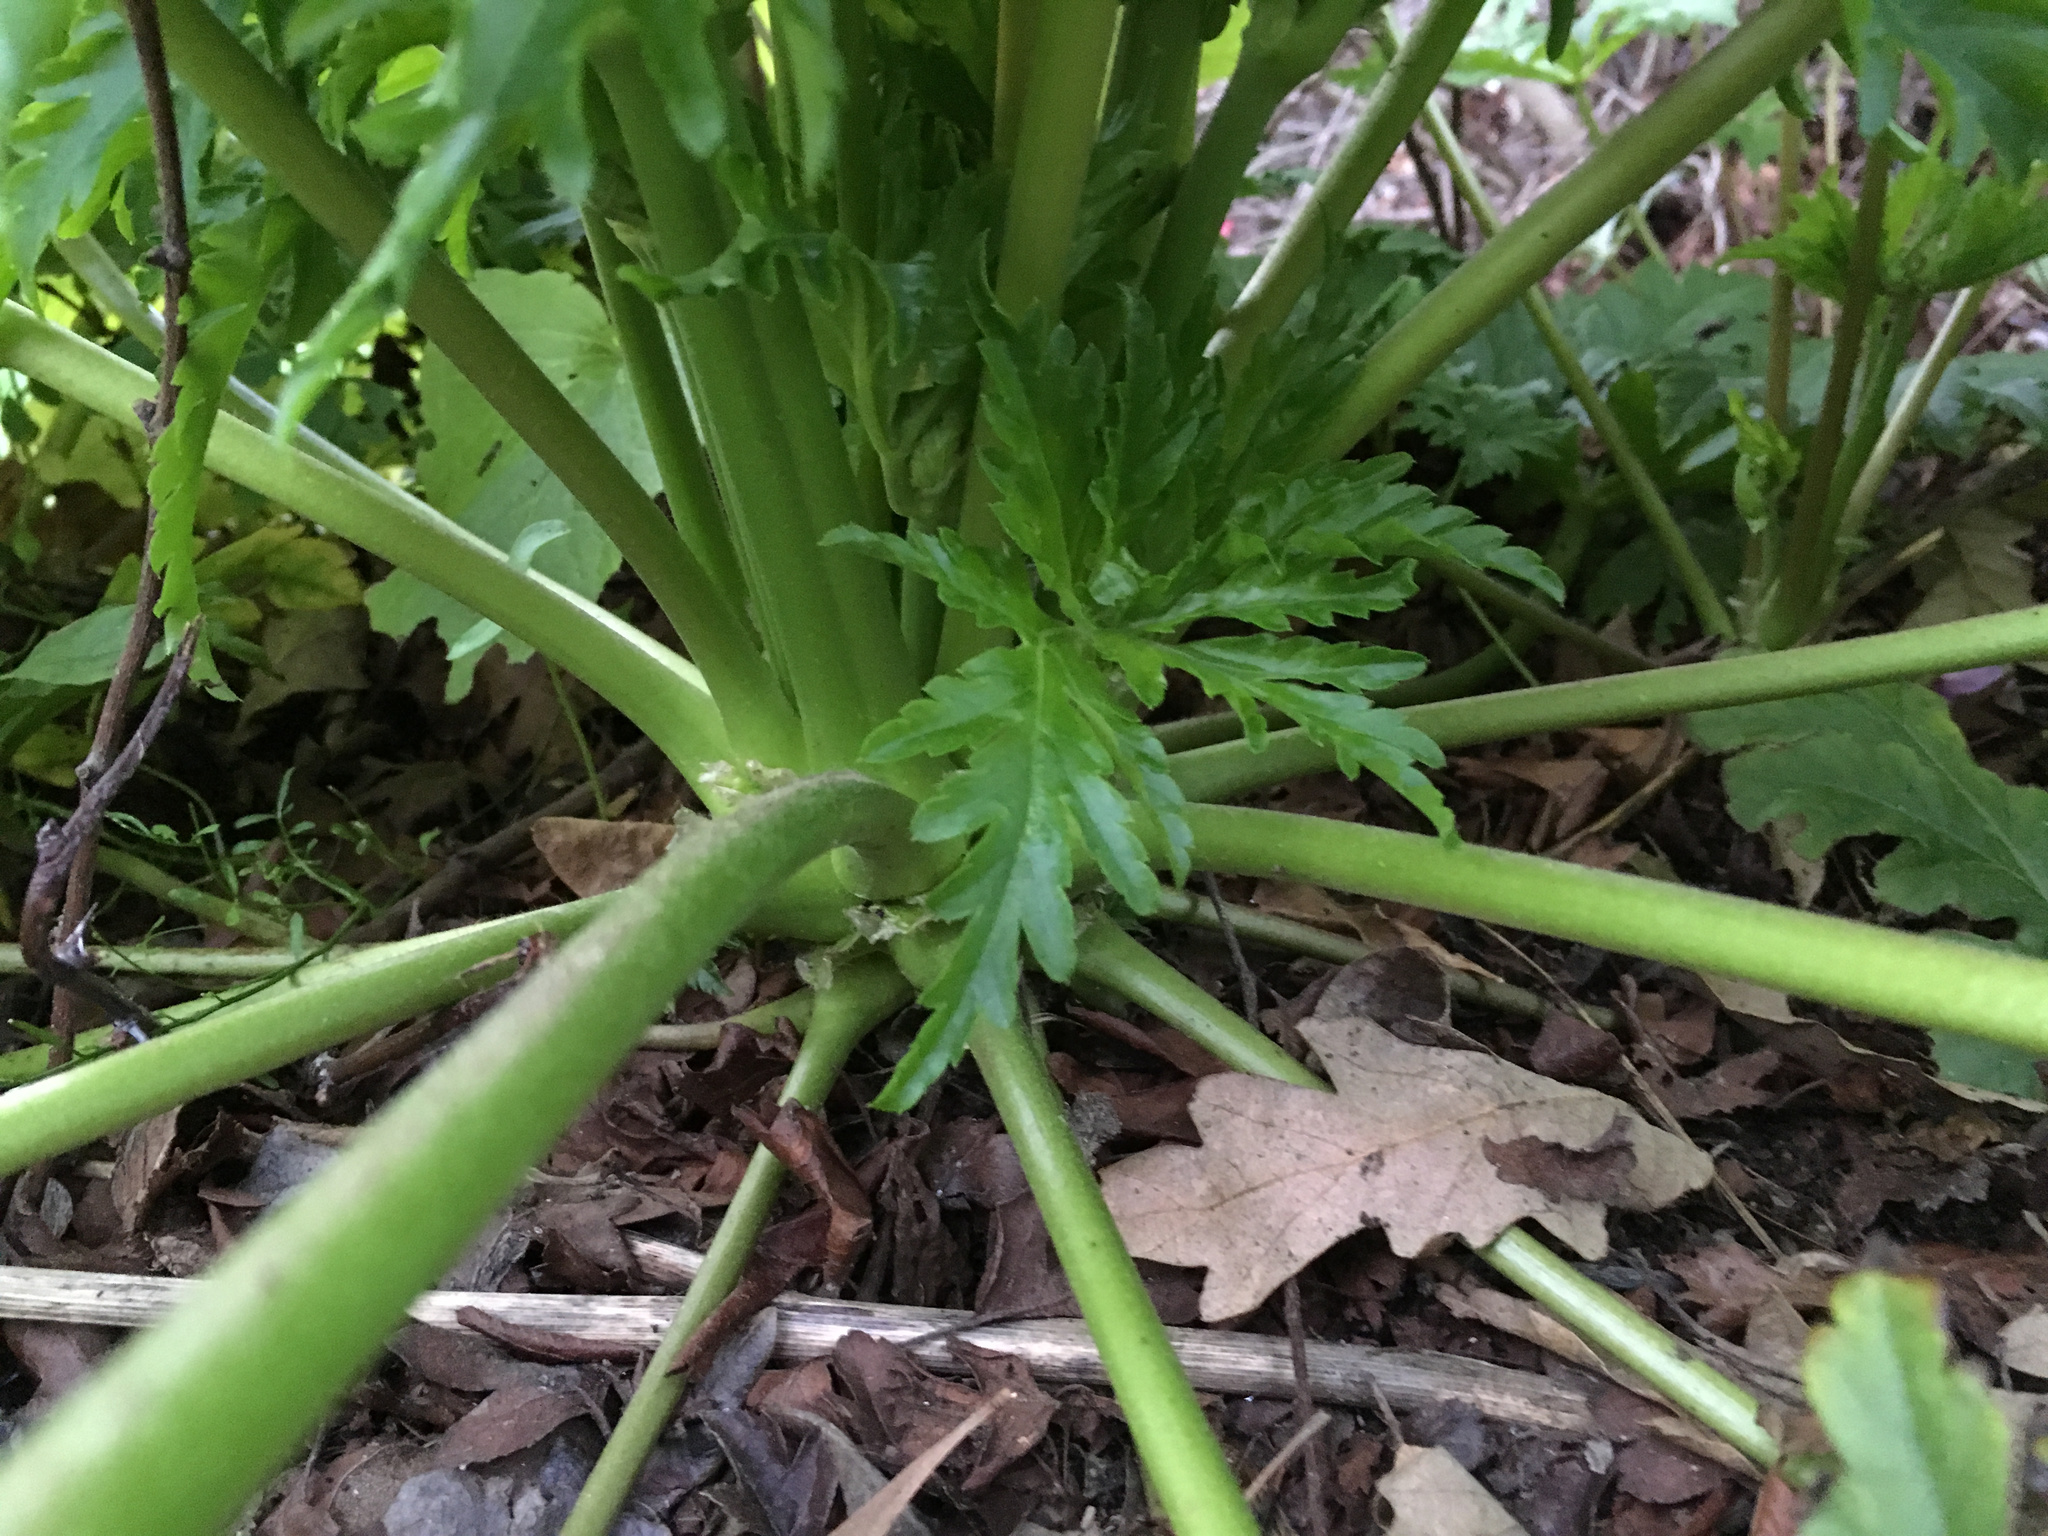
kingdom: Plantae
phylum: Tracheophyta
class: Magnoliopsida
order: Geraniales
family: Geraniaceae
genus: Geranium
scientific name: Geranium maderense
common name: Giant herb-robert
